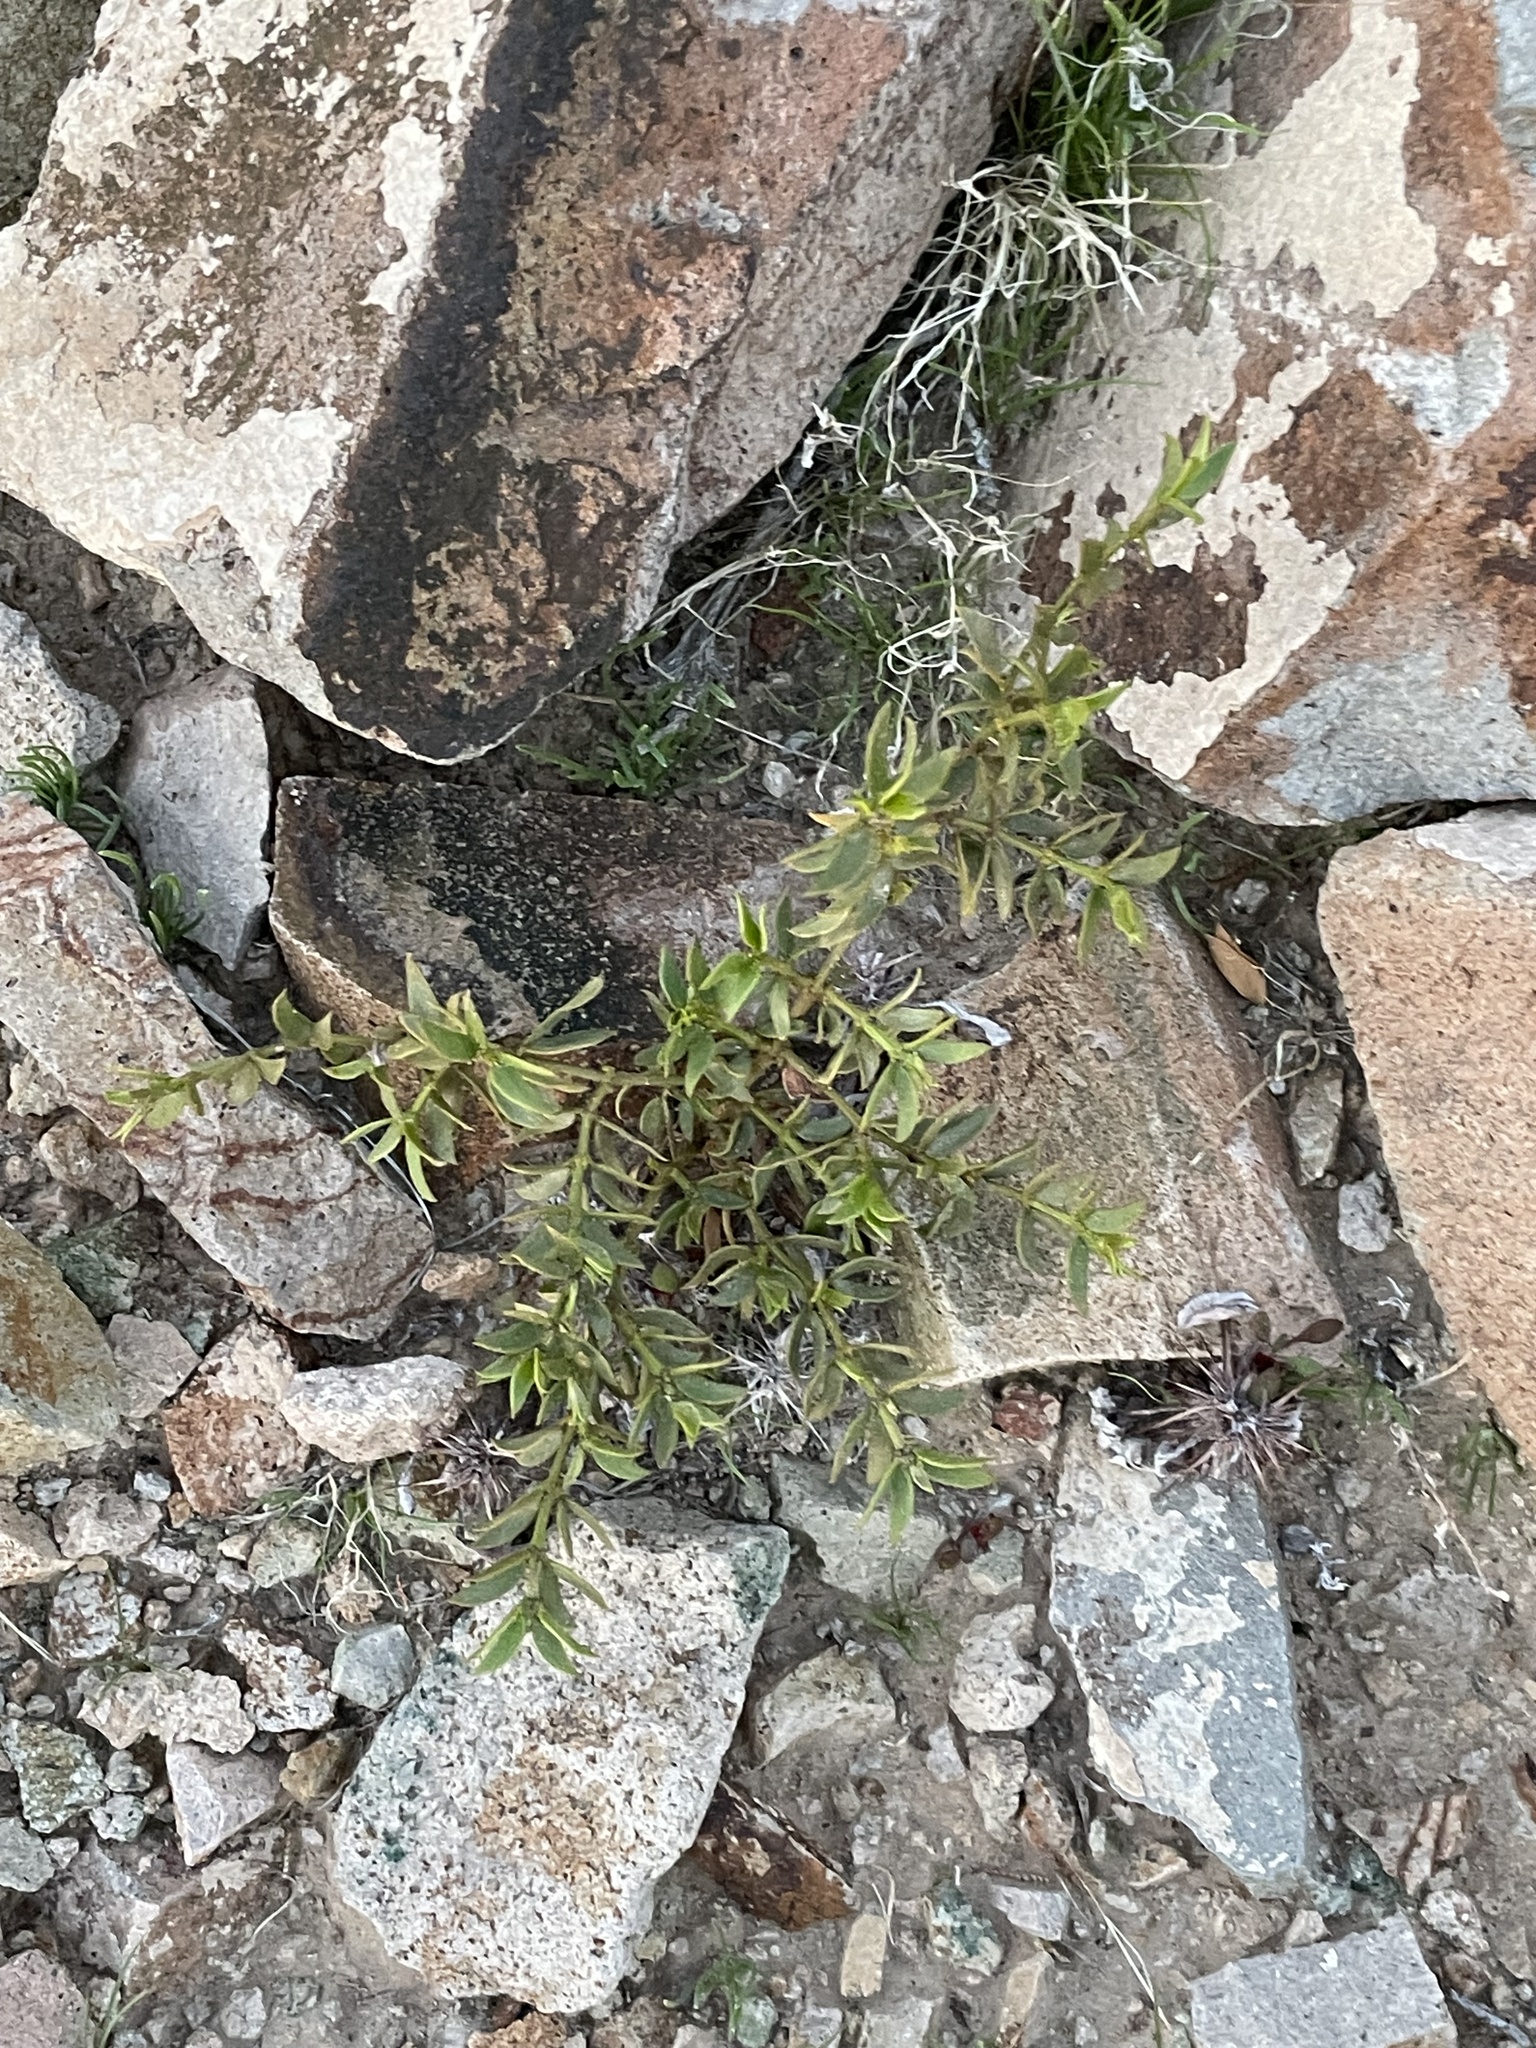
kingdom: Plantae
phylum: Tracheophyta
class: Magnoliopsida
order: Zygophyllales
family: Zygophyllaceae
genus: Larrea
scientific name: Larrea tridentata
